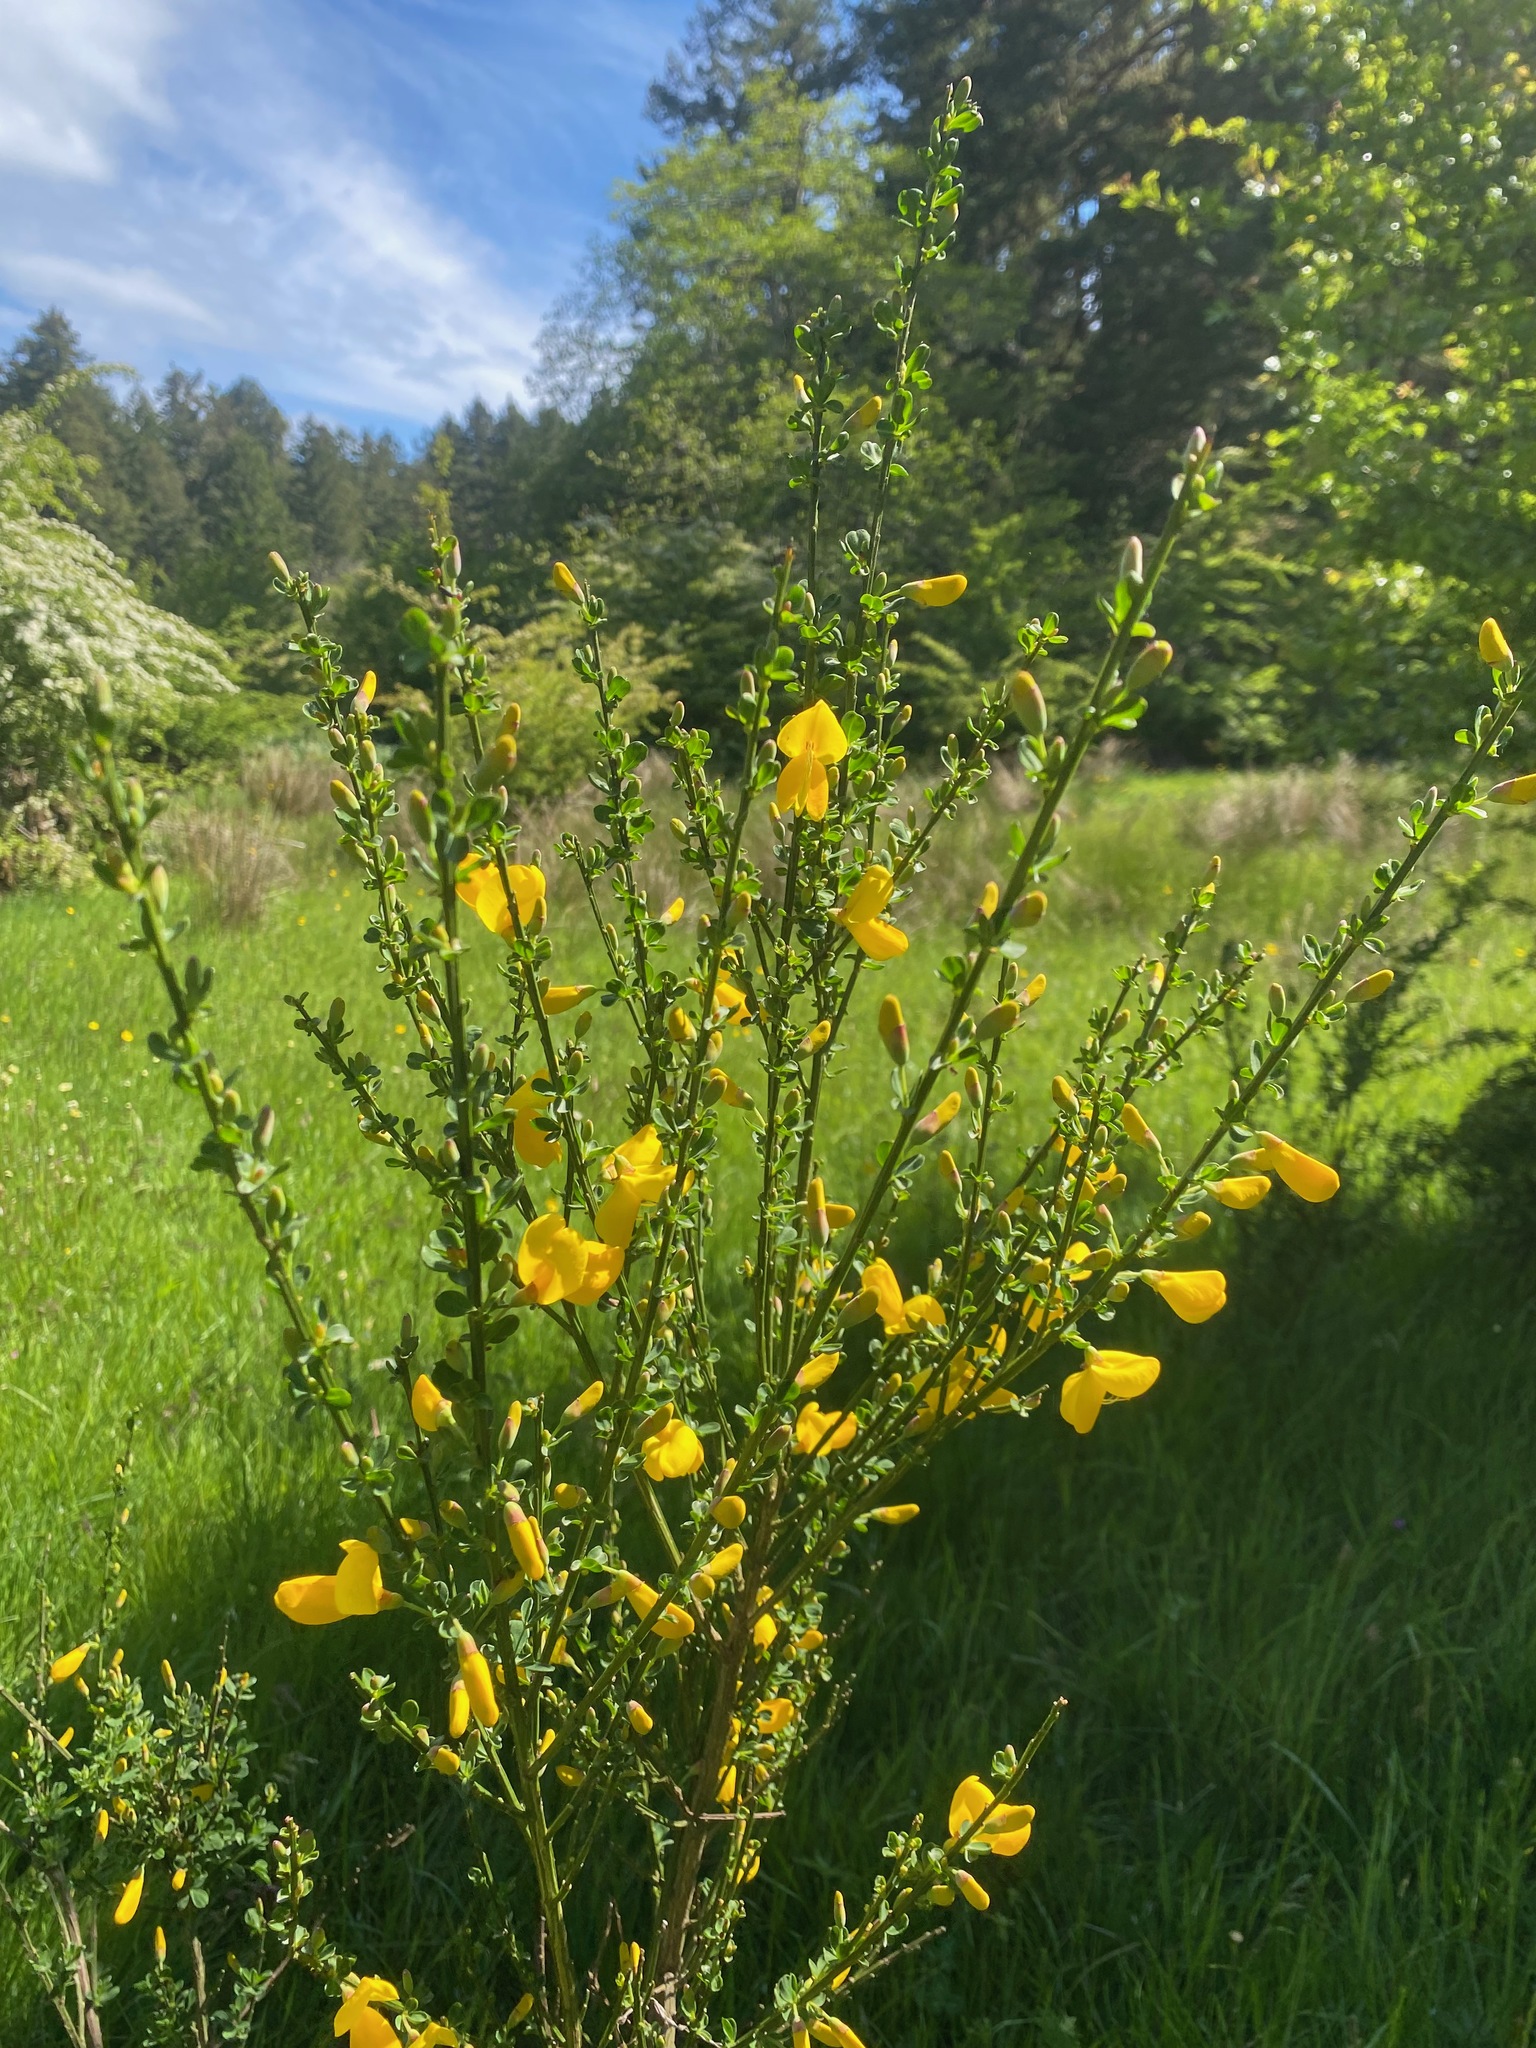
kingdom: Plantae
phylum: Tracheophyta
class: Magnoliopsida
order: Fabales
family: Fabaceae
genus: Cytisus
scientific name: Cytisus scoparius
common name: Scotch broom
